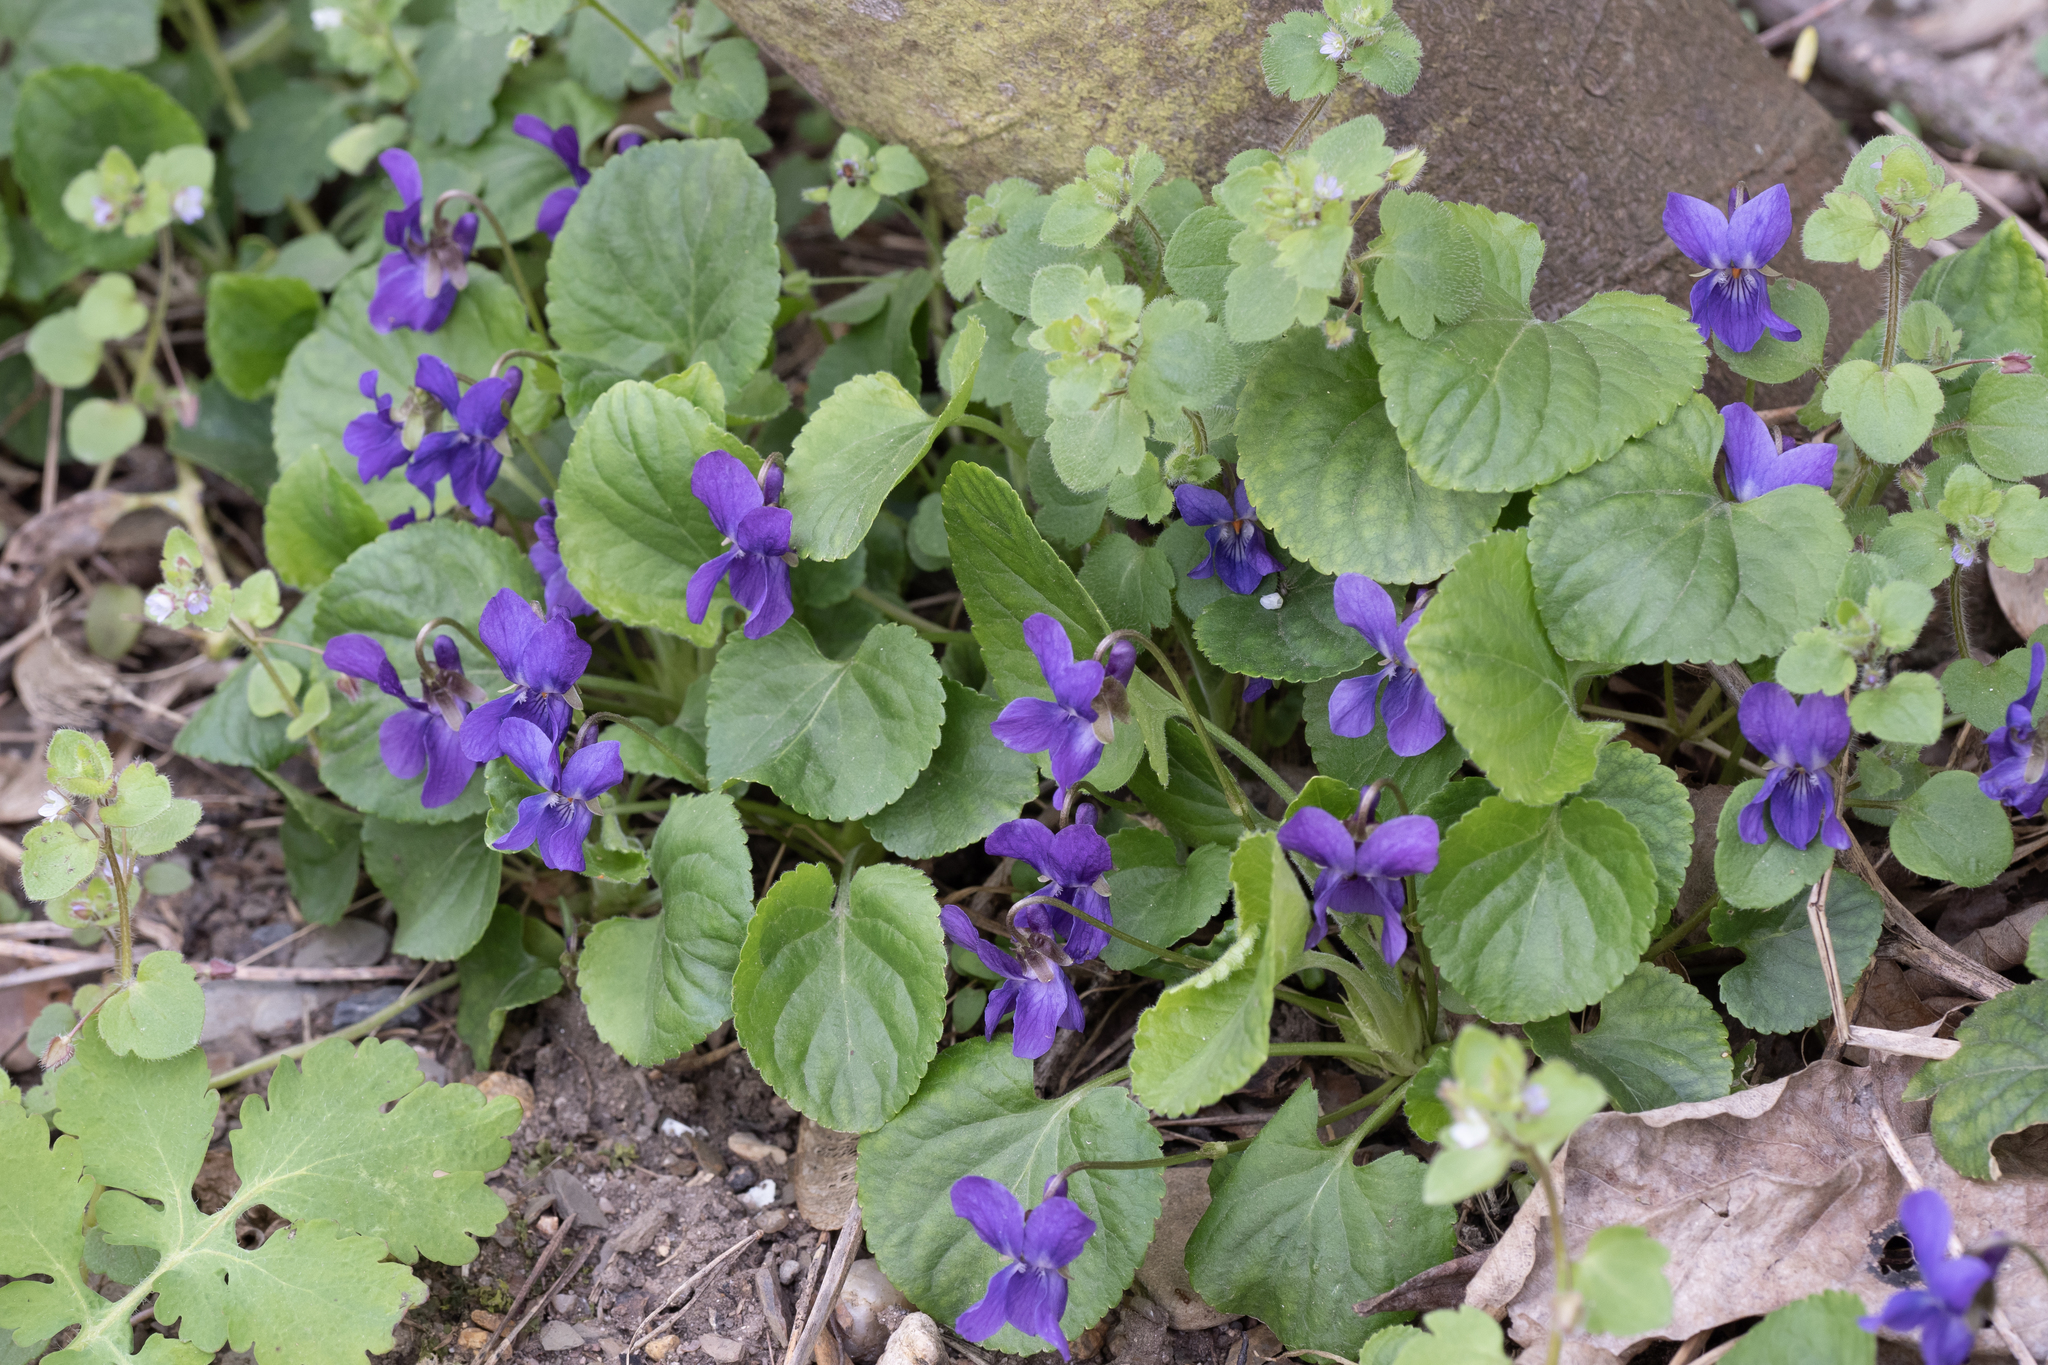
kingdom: Plantae
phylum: Tracheophyta
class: Magnoliopsida
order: Malpighiales
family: Violaceae
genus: Viola
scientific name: Viola odorata
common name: Sweet violet
